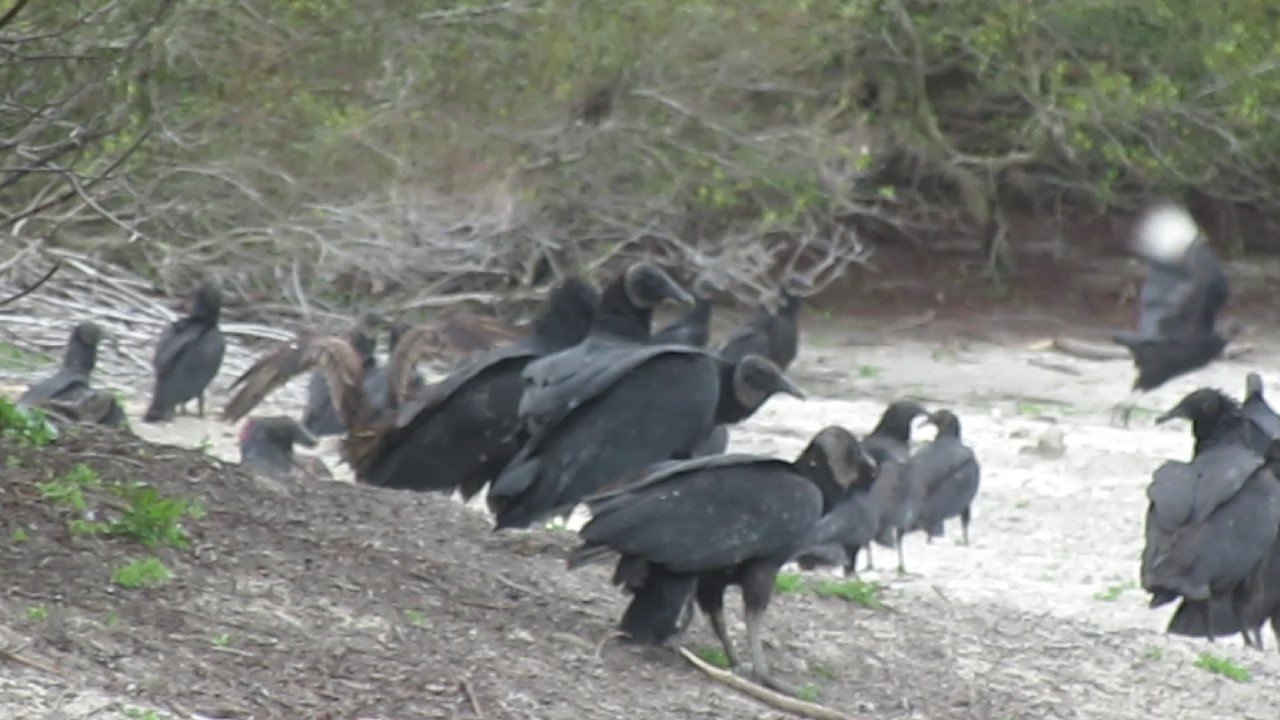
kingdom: Animalia
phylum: Chordata
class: Aves
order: Accipitriformes
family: Cathartidae
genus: Coragyps
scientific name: Coragyps atratus
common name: Black vulture
